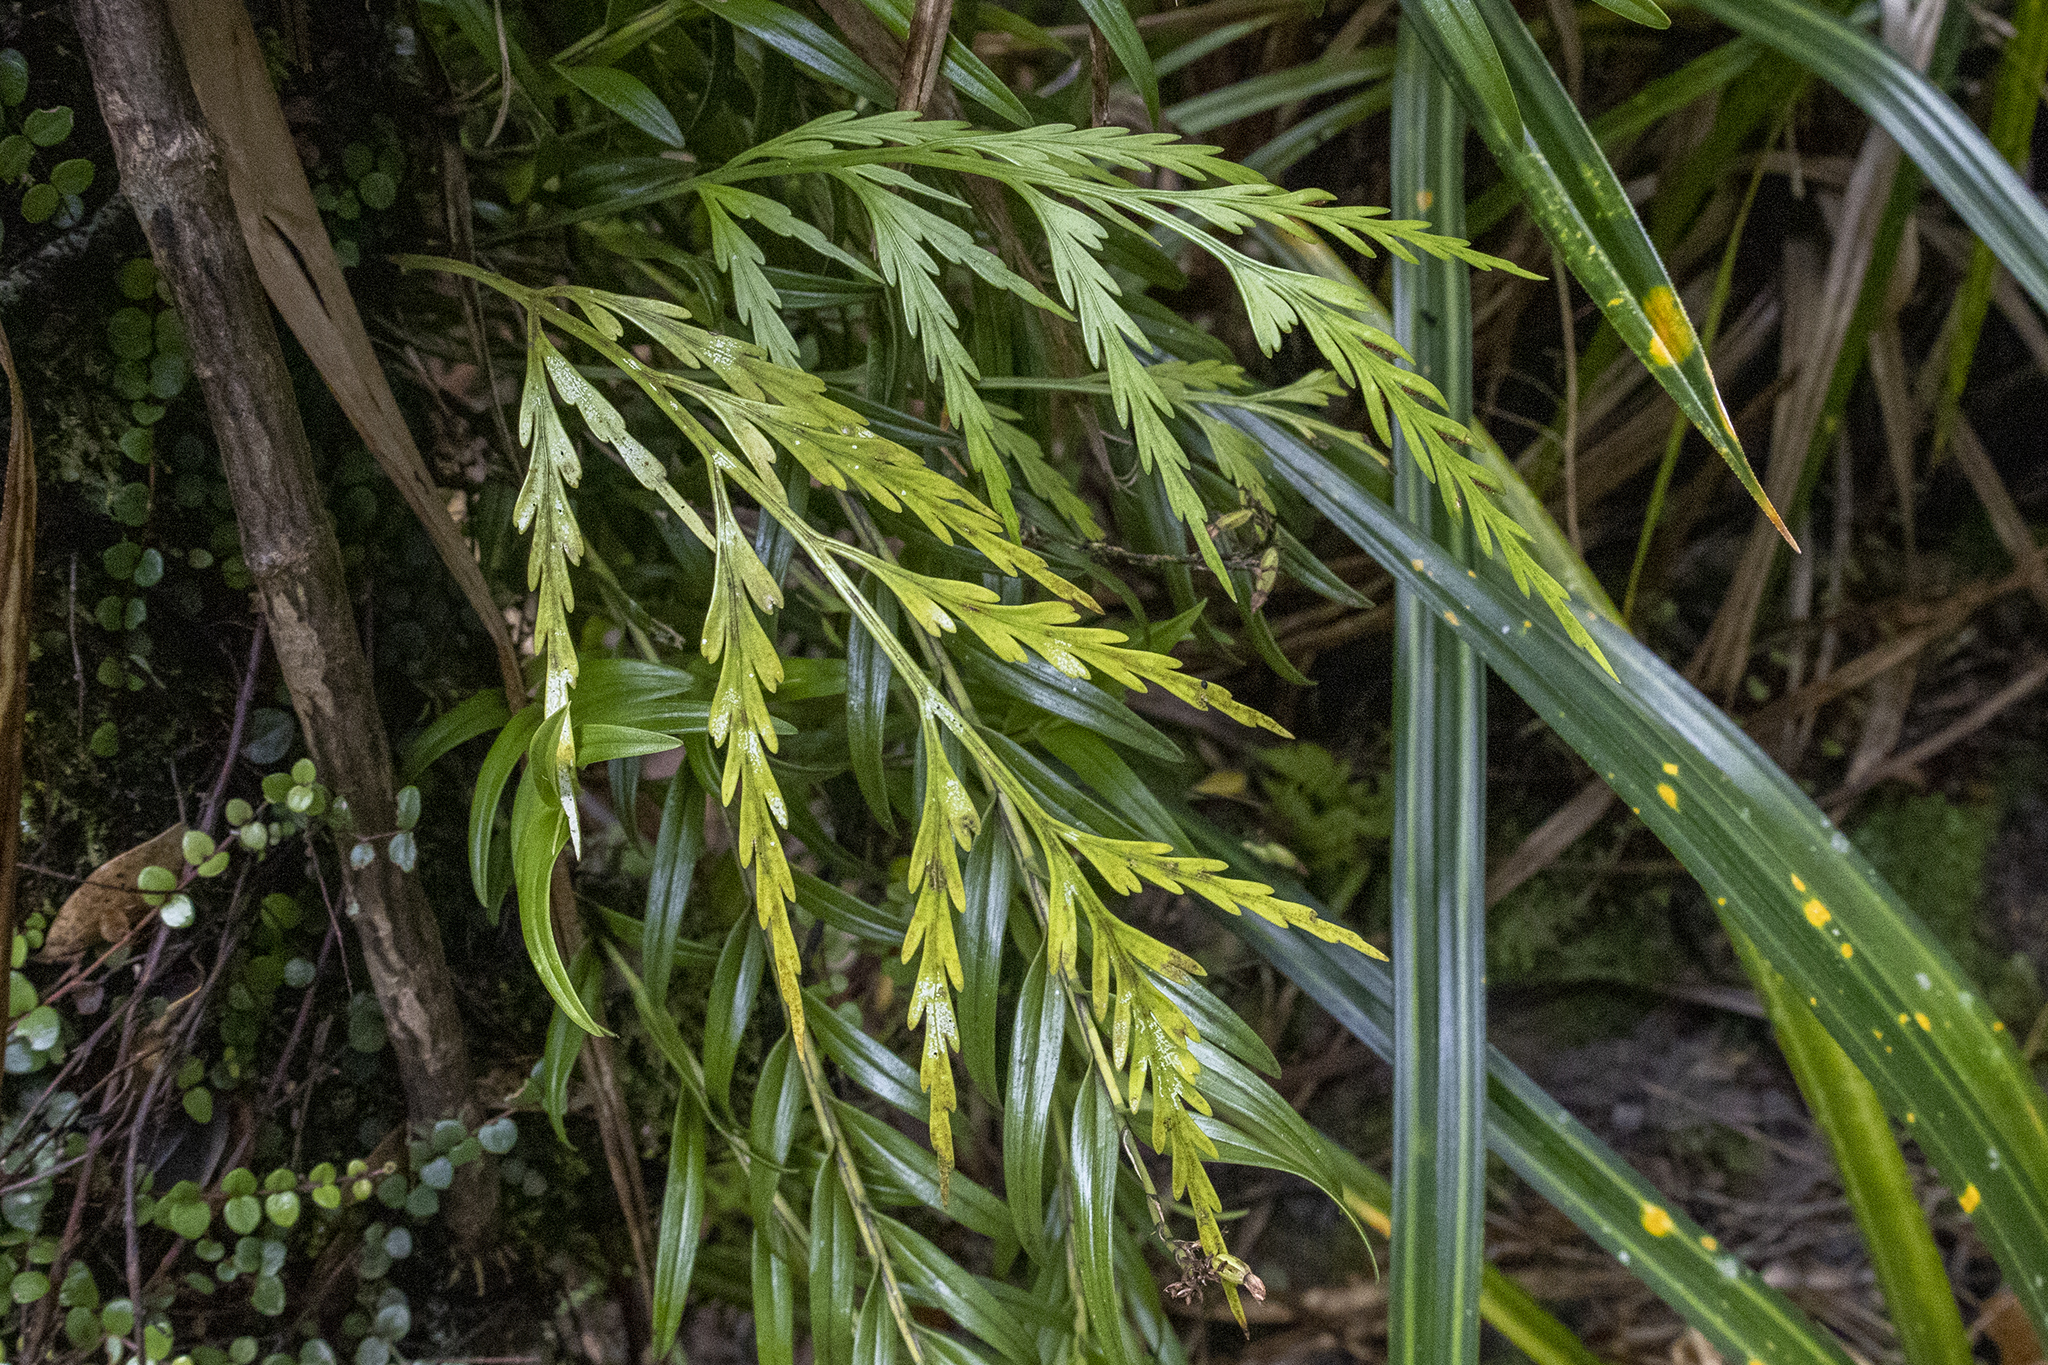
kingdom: Plantae
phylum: Tracheophyta
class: Polypodiopsida
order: Polypodiales
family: Aspleniaceae
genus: Asplenium
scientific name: Asplenium flaccidum
